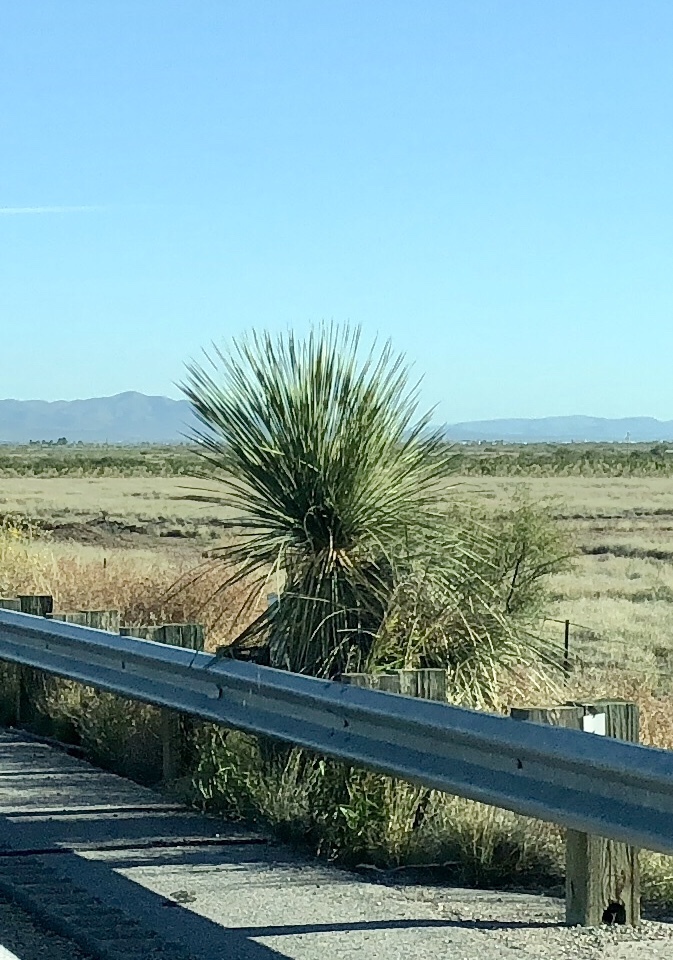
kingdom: Plantae
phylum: Tracheophyta
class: Liliopsida
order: Asparagales
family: Asparagaceae
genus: Yucca
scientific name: Yucca elata
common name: Palmella
